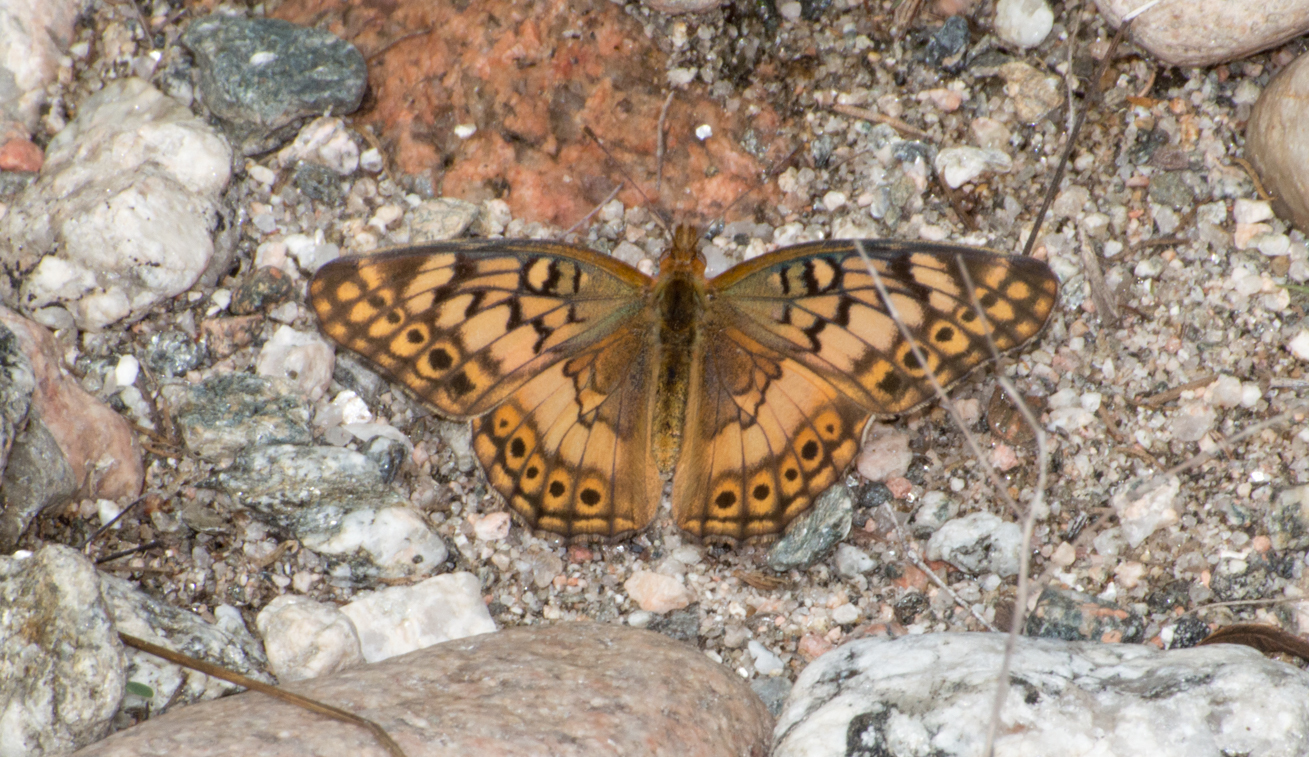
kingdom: Animalia
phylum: Arthropoda
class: Insecta
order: Lepidoptera
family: Nymphalidae
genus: Euptoieta
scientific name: Euptoieta hortensia
